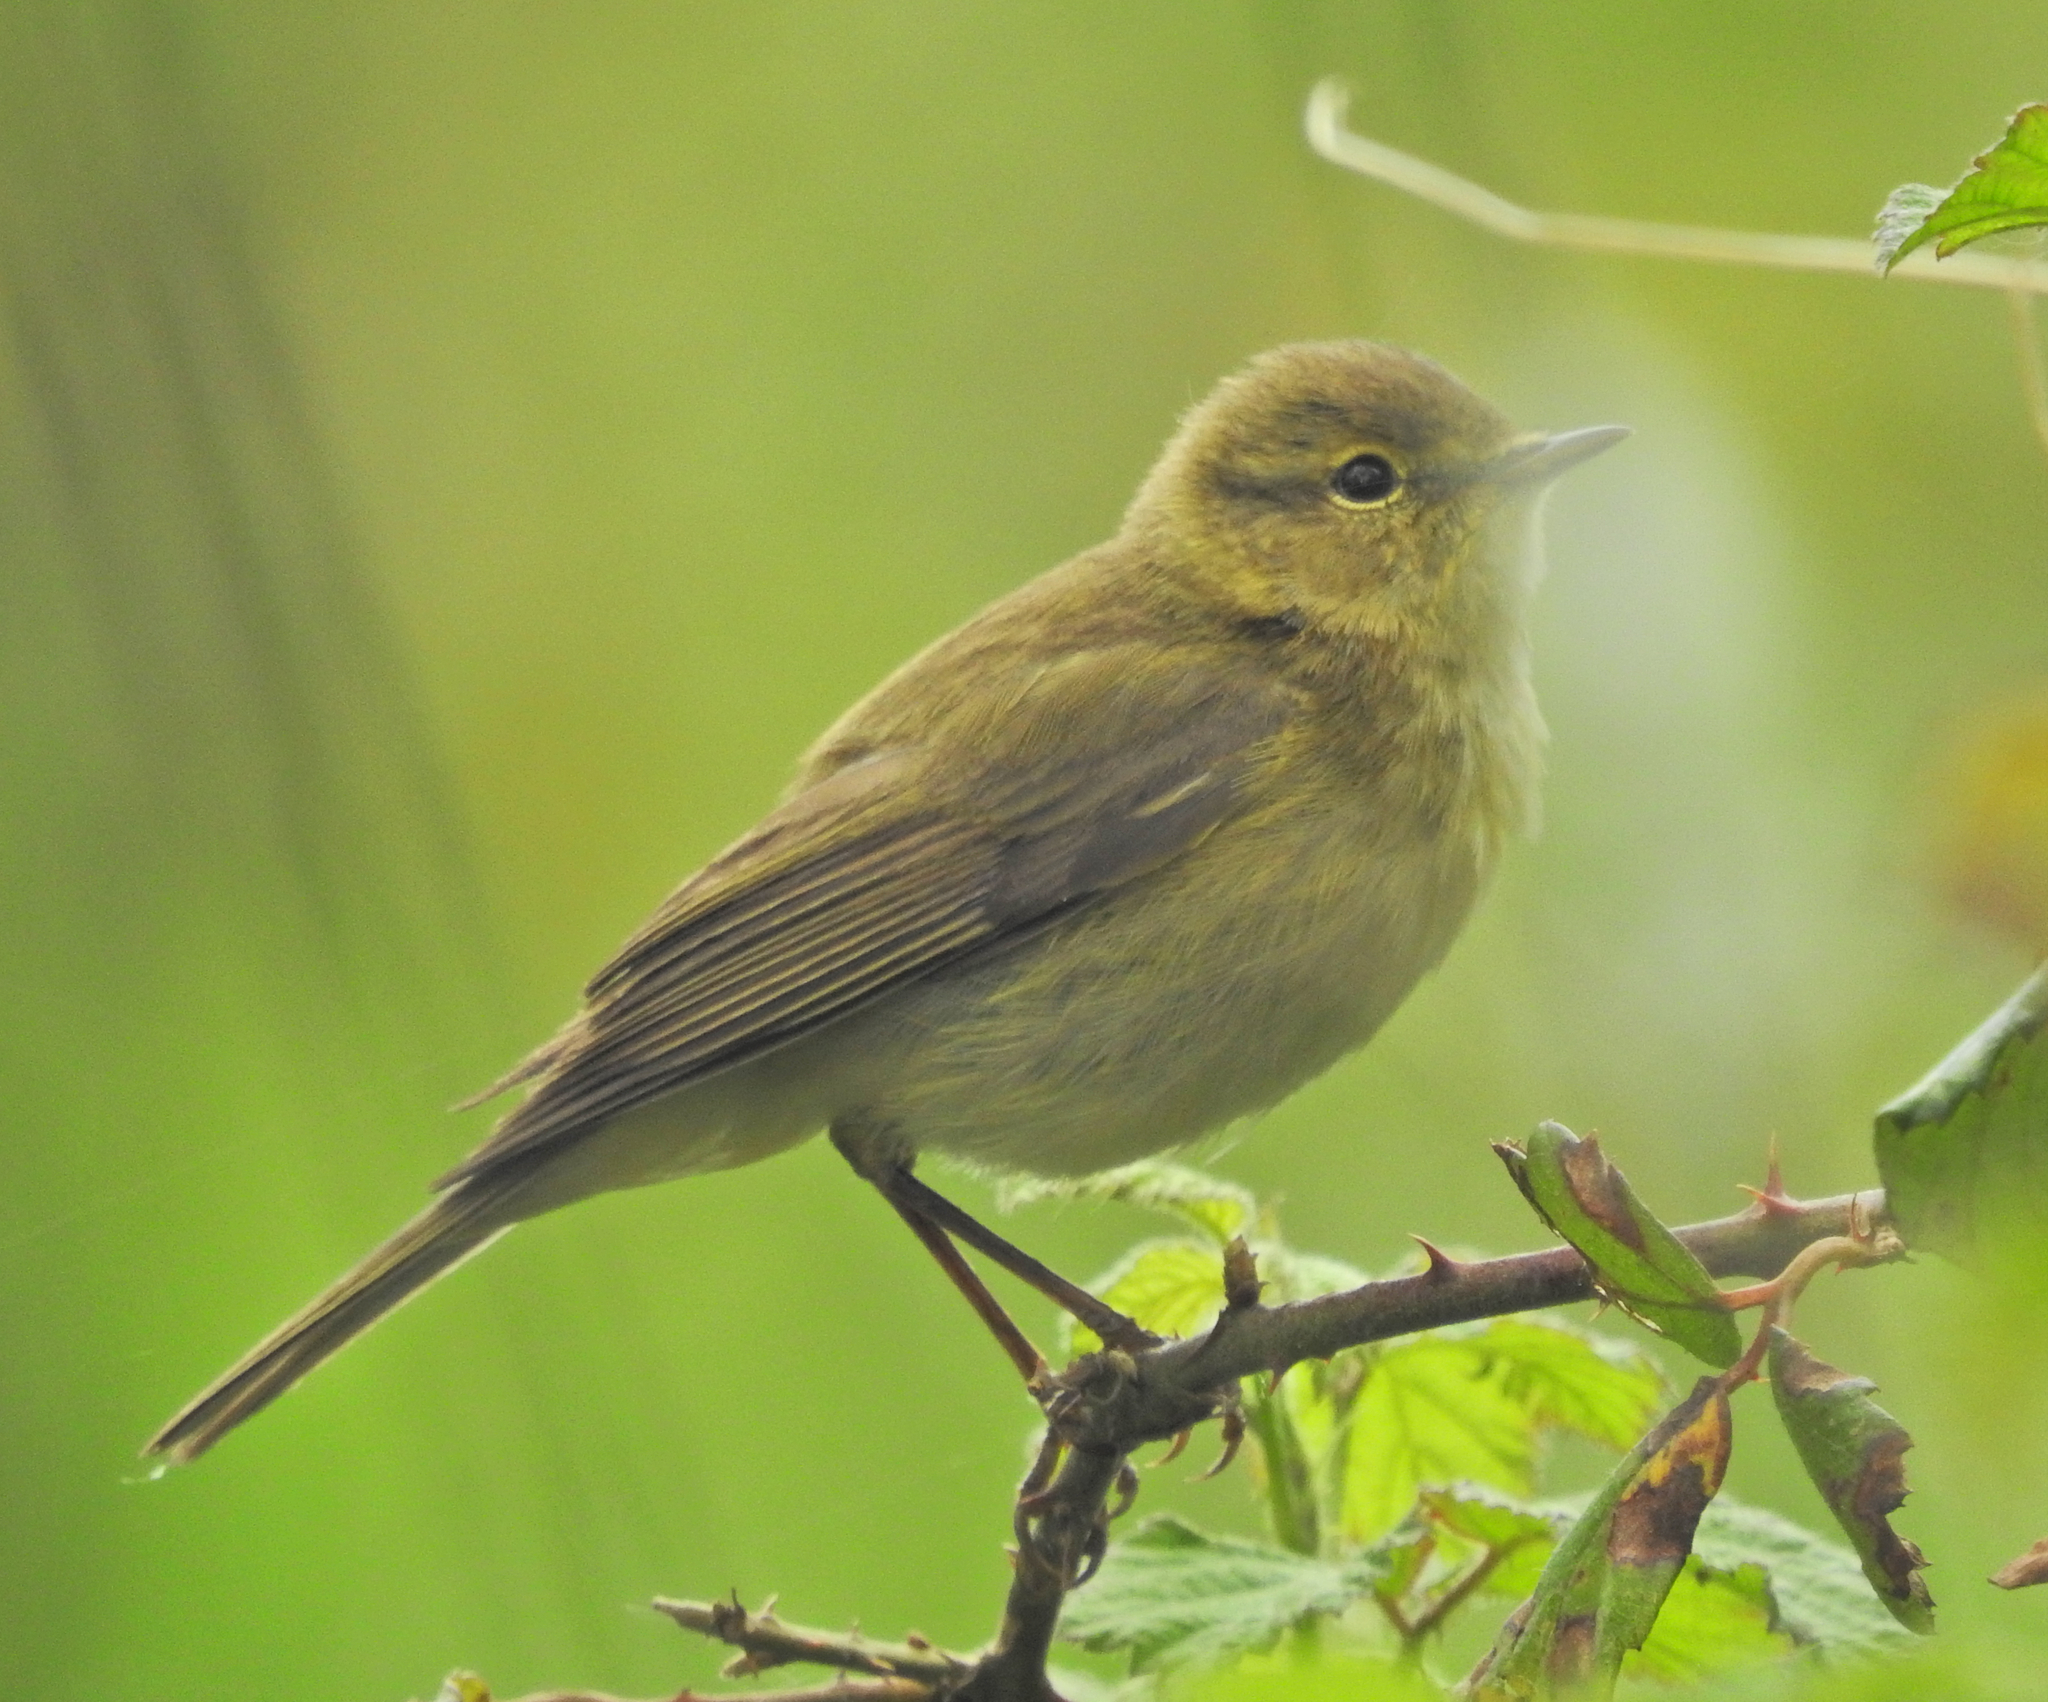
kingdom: Animalia
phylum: Chordata
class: Aves
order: Passeriformes
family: Phylloscopidae
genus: Phylloscopus
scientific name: Phylloscopus ibericus
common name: Iberian chiffchaff
